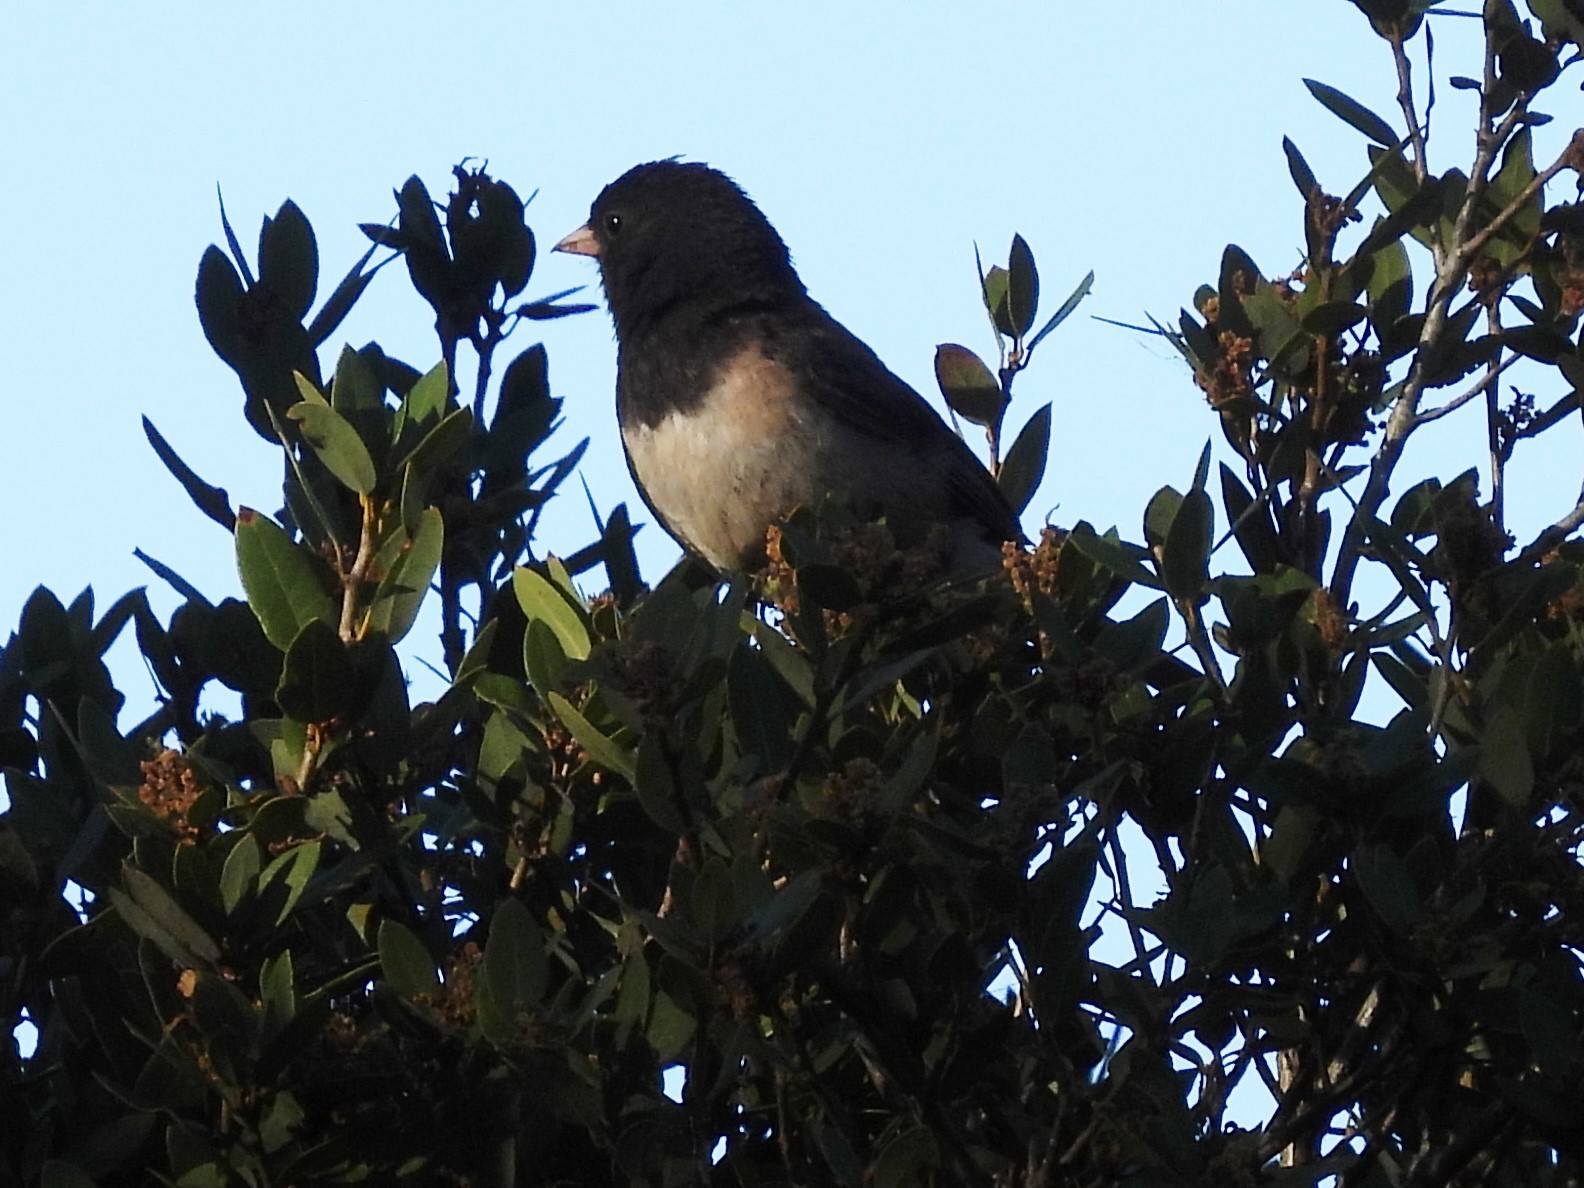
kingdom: Animalia
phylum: Chordata
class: Aves
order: Passeriformes
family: Passerellidae
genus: Junco
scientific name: Junco hyemalis
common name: Dark-eyed junco
